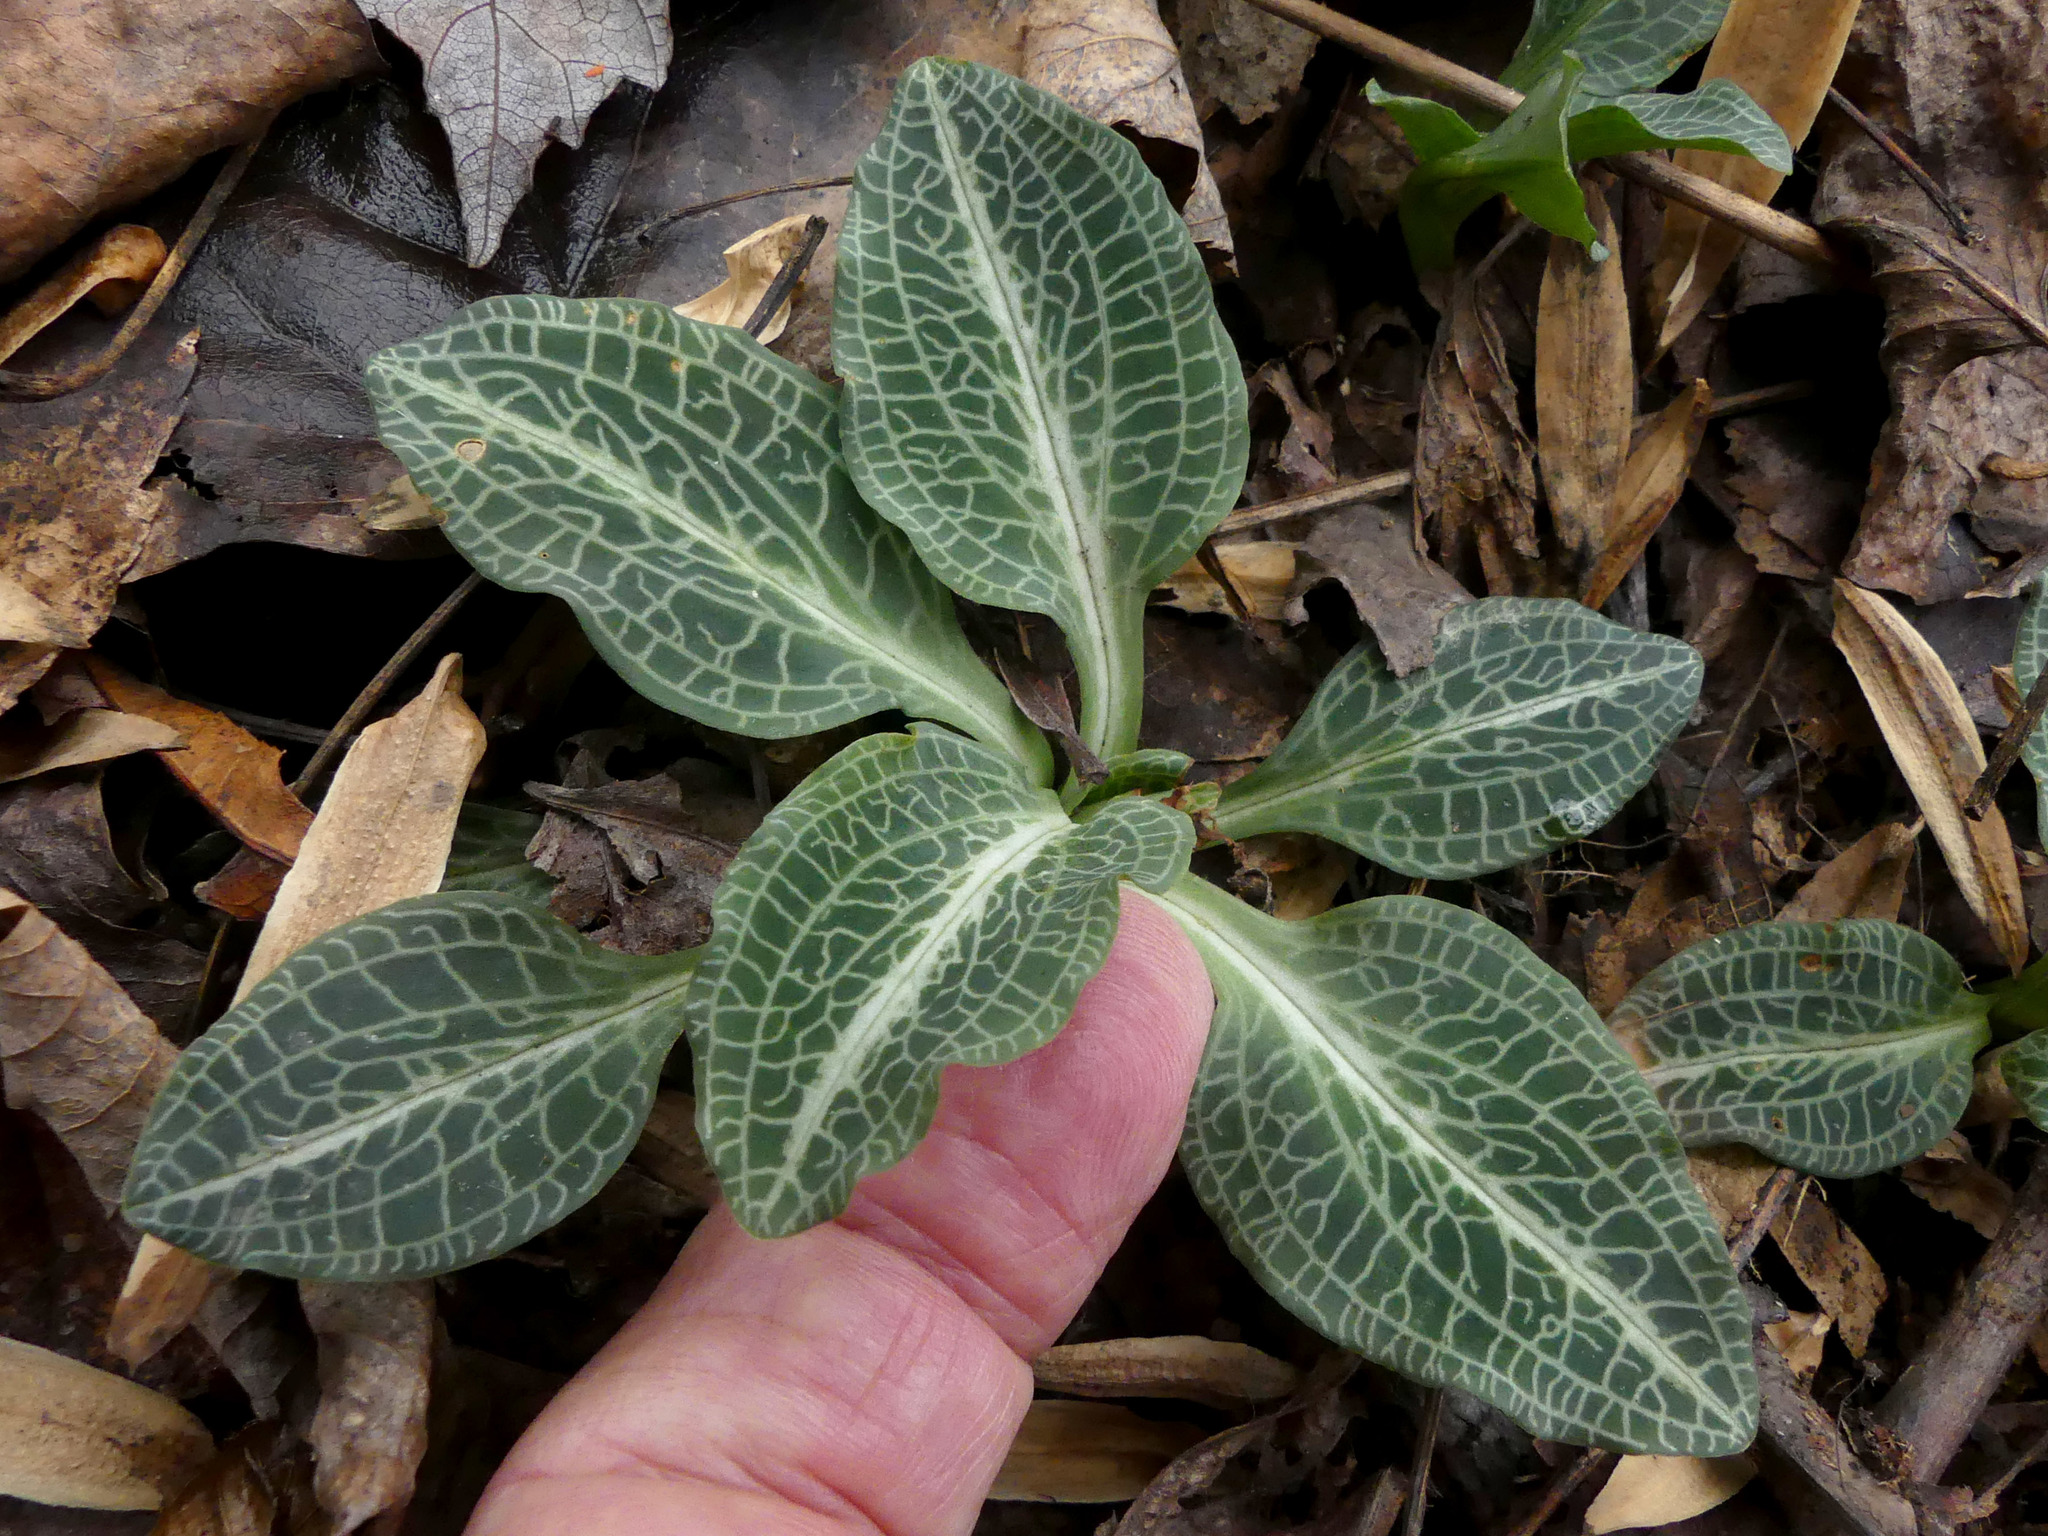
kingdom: Plantae
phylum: Tracheophyta
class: Liliopsida
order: Asparagales
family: Orchidaceae
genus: Goodyera
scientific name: Goodyera pubescens
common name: Downy rattlesnake-plantain
